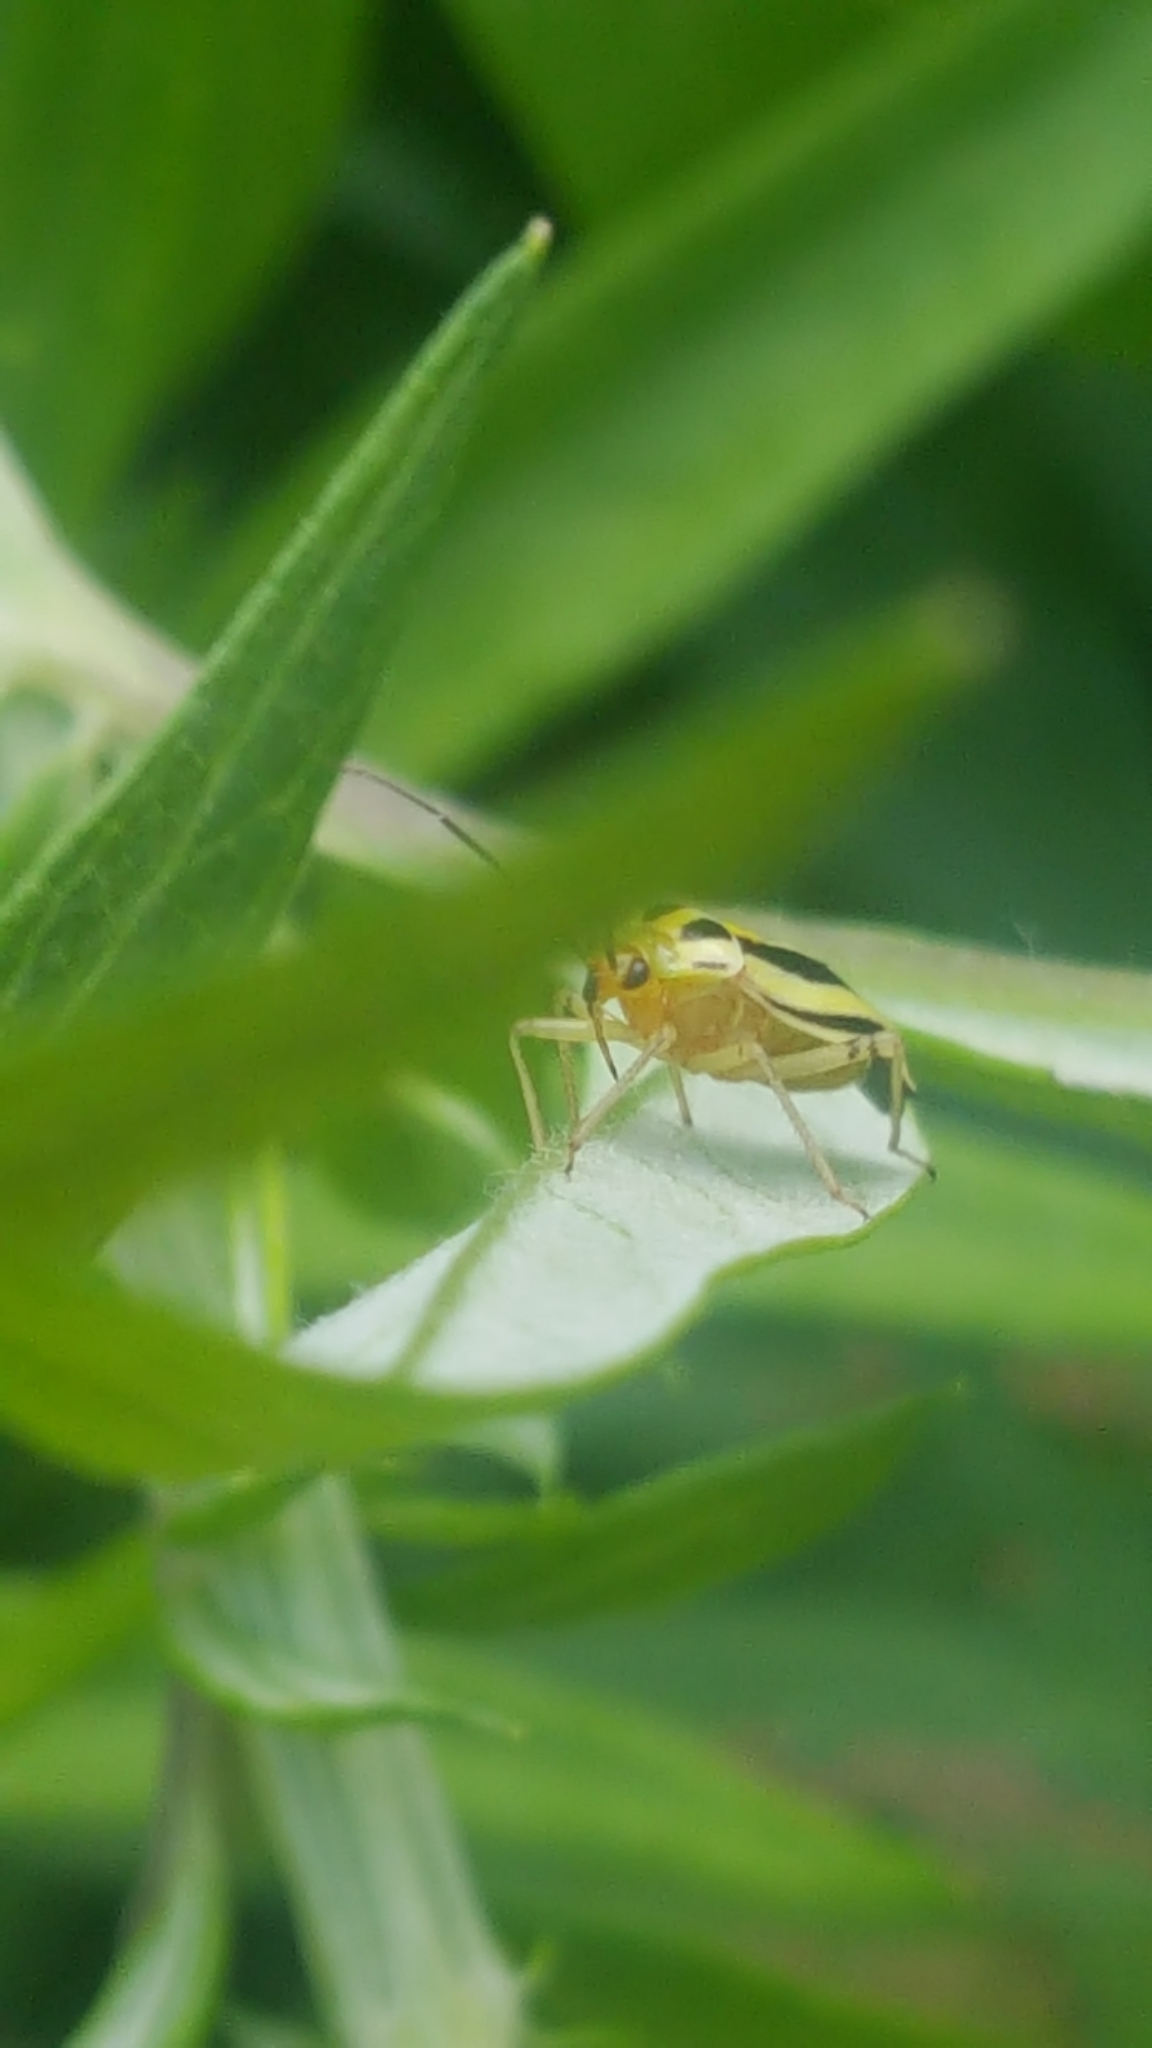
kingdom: Animalia
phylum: Arthropoda
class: Insecta
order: Hemiptera
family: Miridae
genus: Poecilocapsus
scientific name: Poecilocapsus lineatus
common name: Four-lined plant bug
